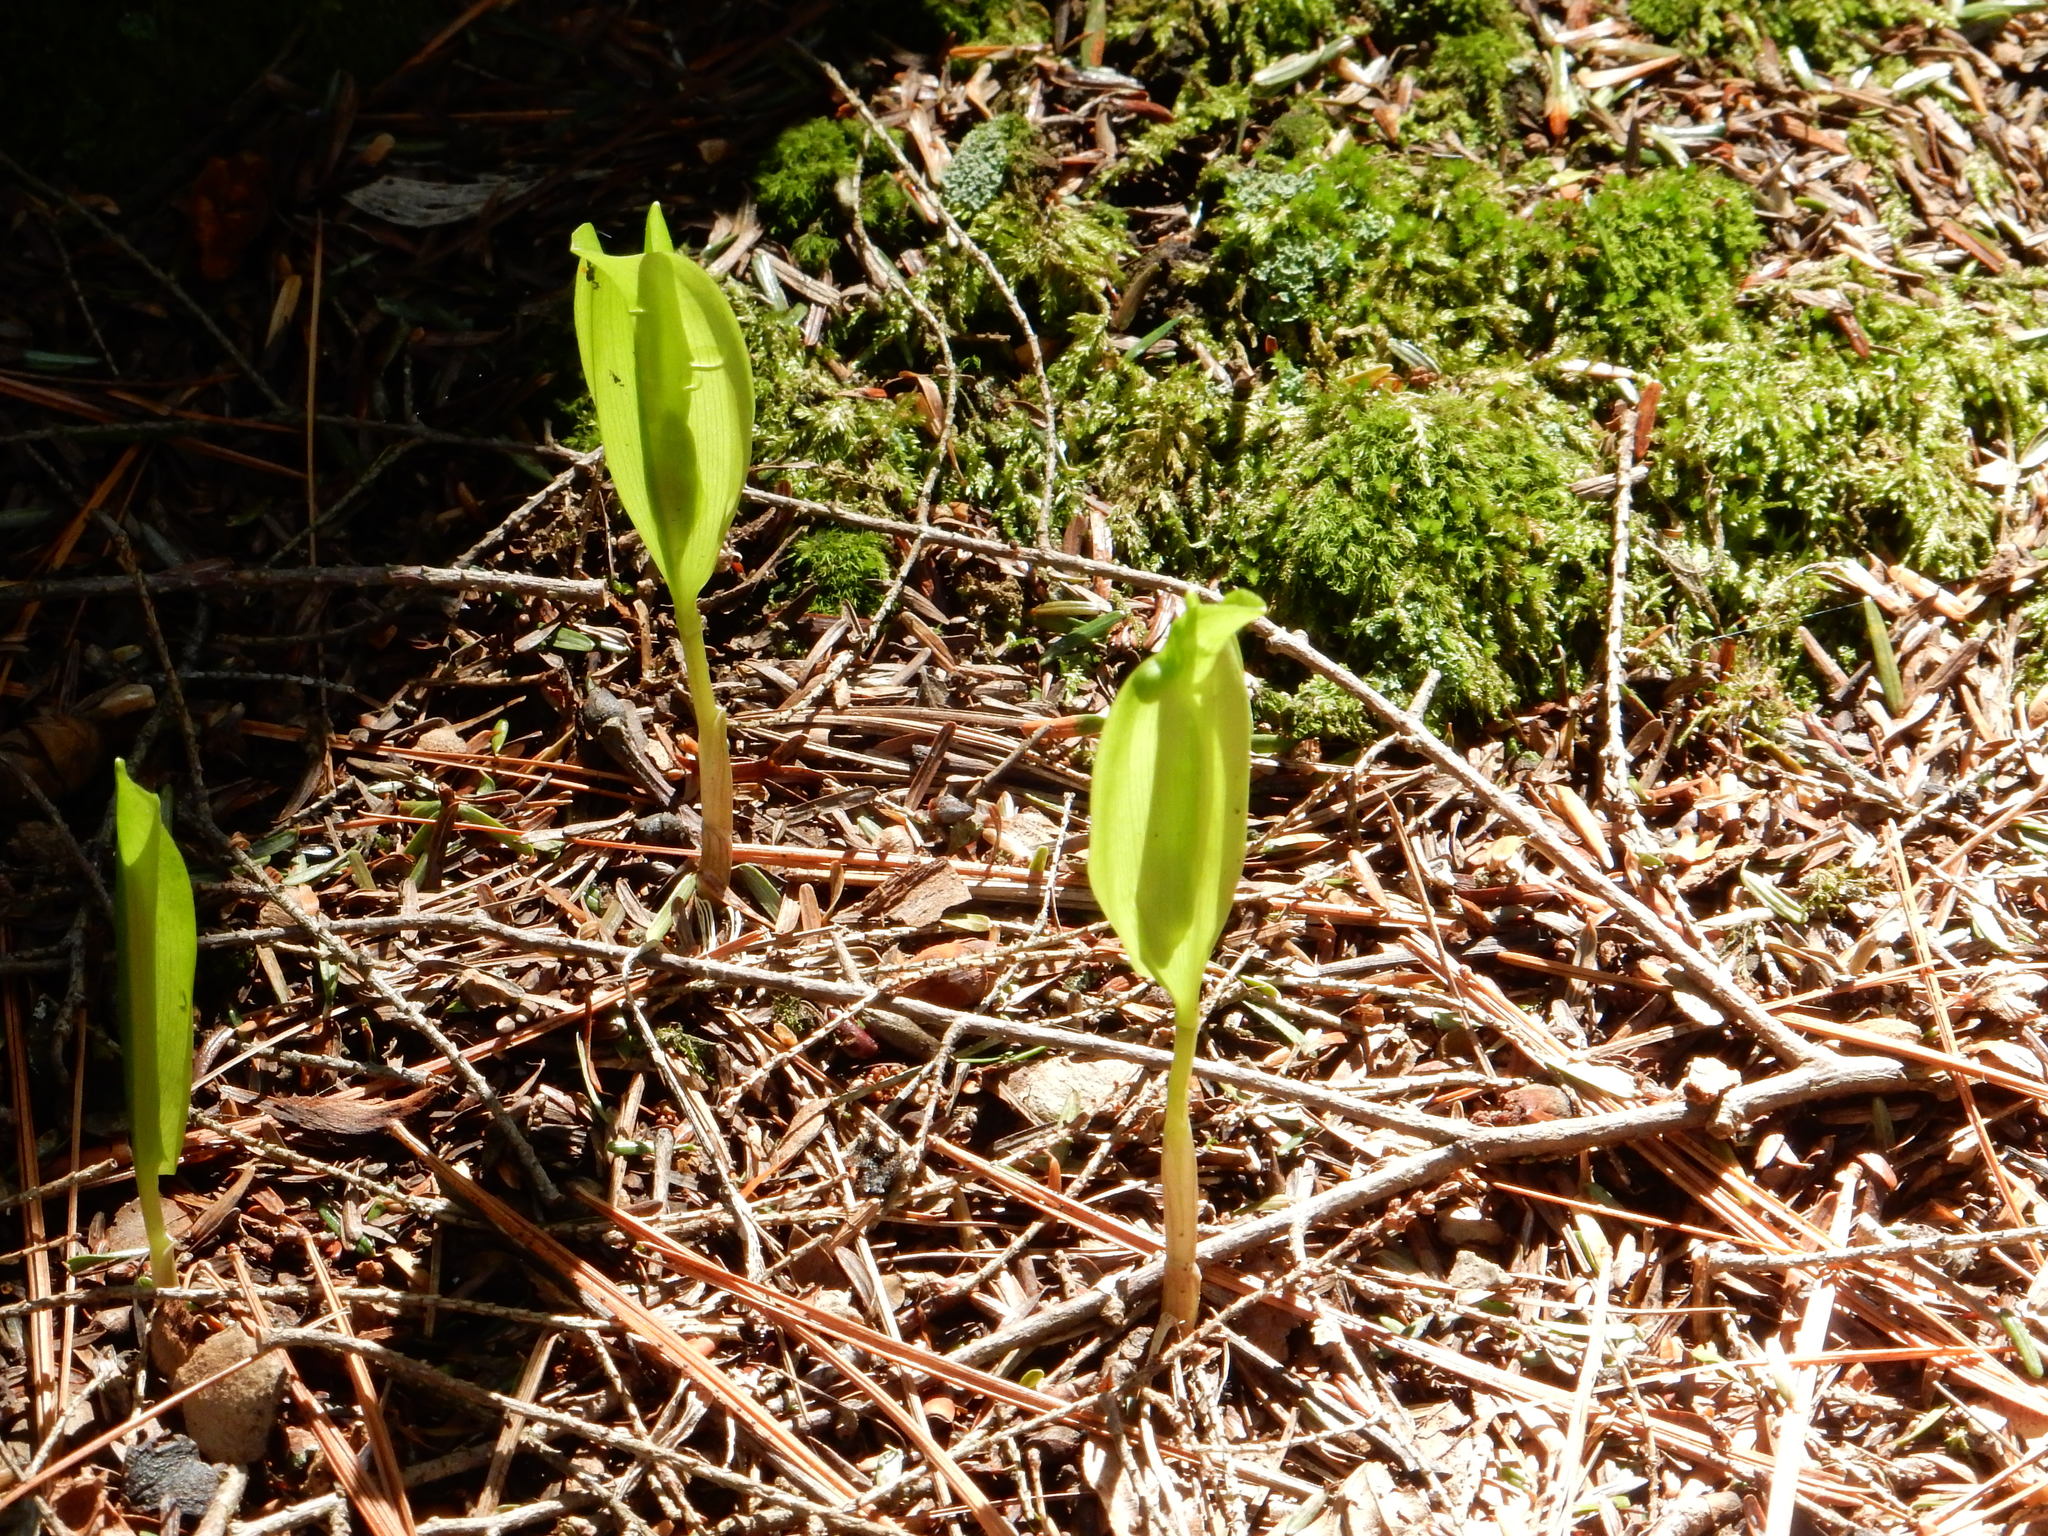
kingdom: Plantae
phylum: Tracheophyta
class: Liliopsida
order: Asparagales
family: Asparagaceae
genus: Maianthemum
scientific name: Maianthemum canadense
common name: False lily-of-the-valley
